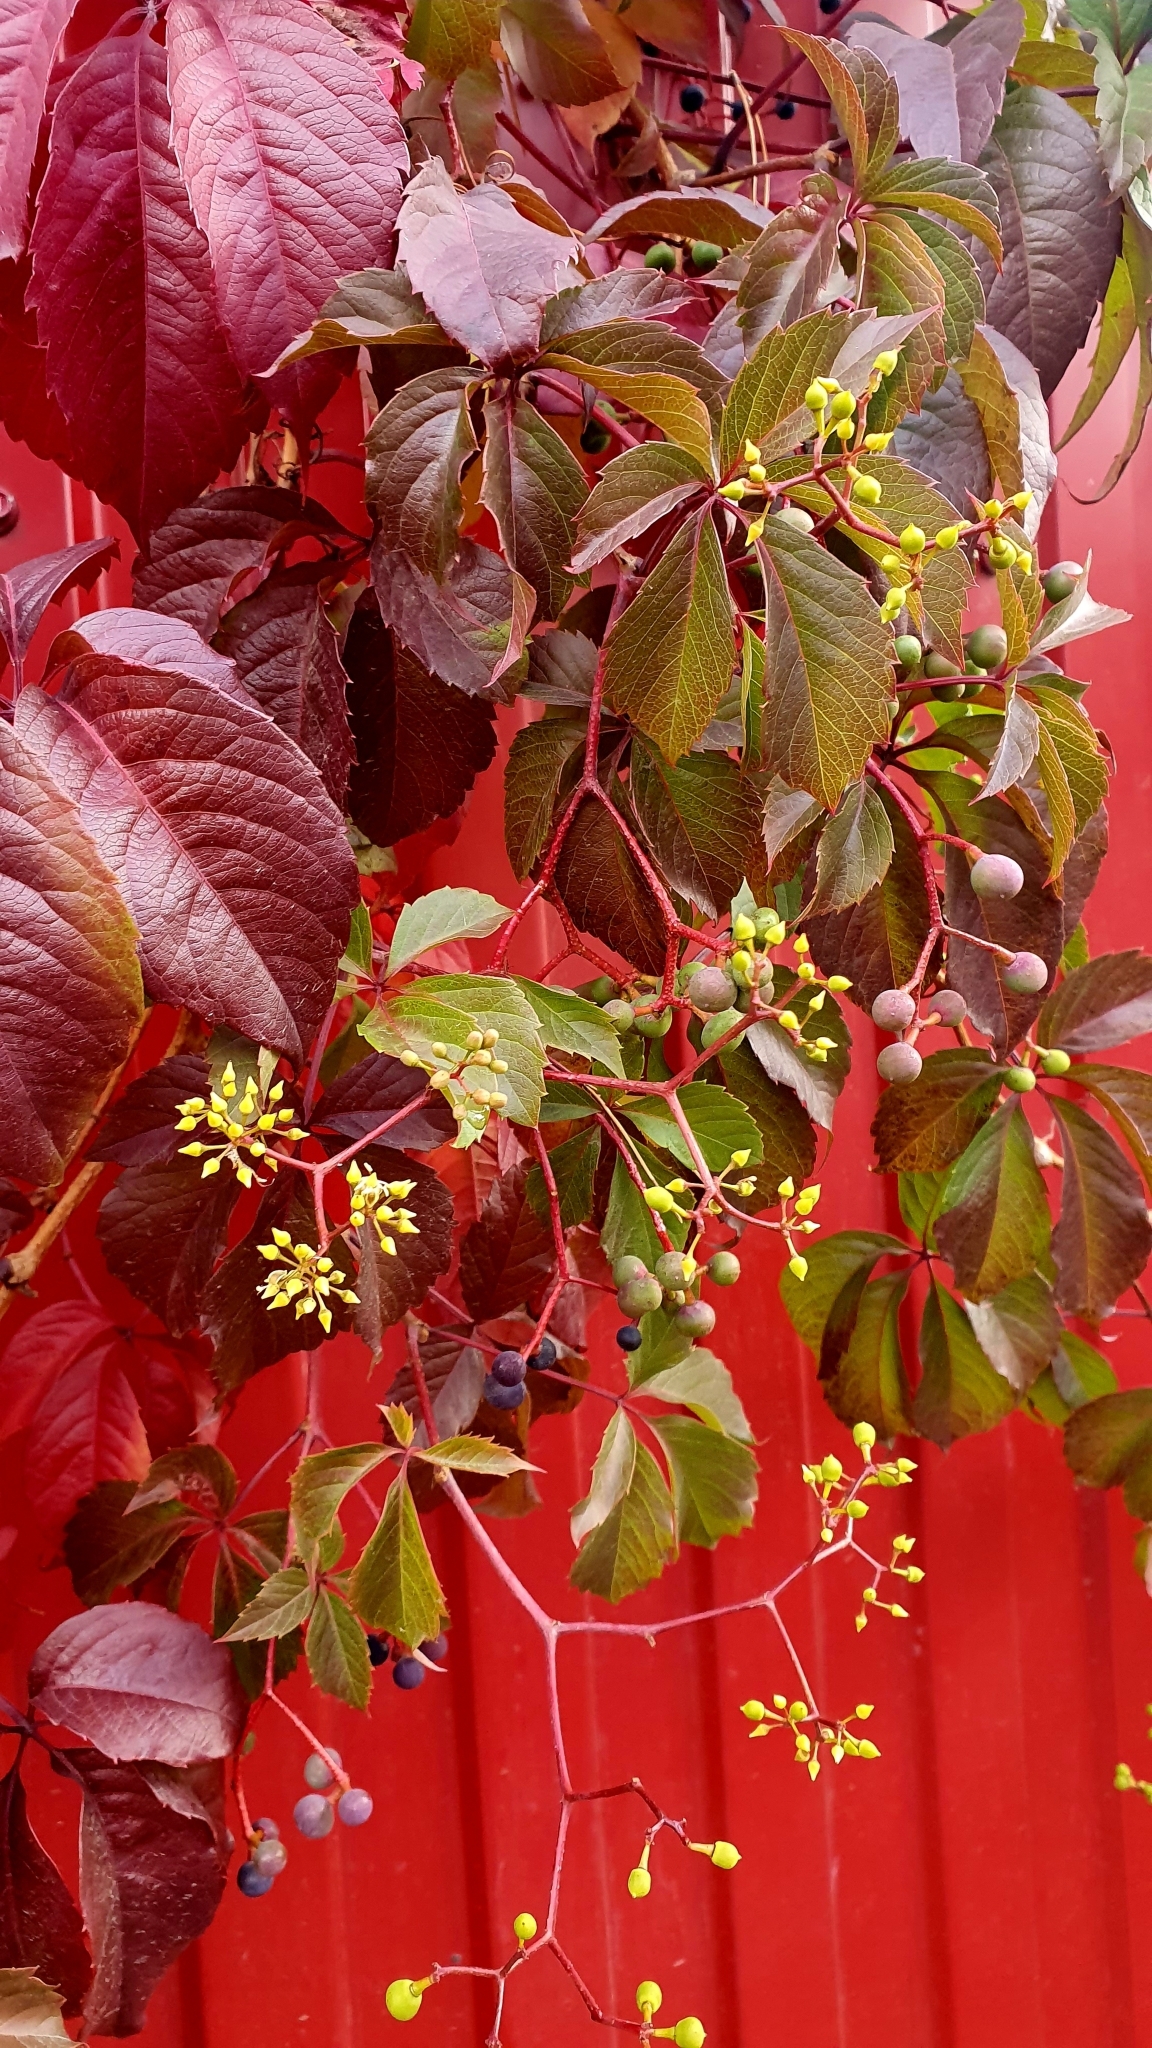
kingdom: Plantae
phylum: Tracheophyta
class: Magnoliopsida
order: Vitales
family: Vitaceae
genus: Parthenocissus
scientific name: Parthenocissus inserta
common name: False virginia-creeper
